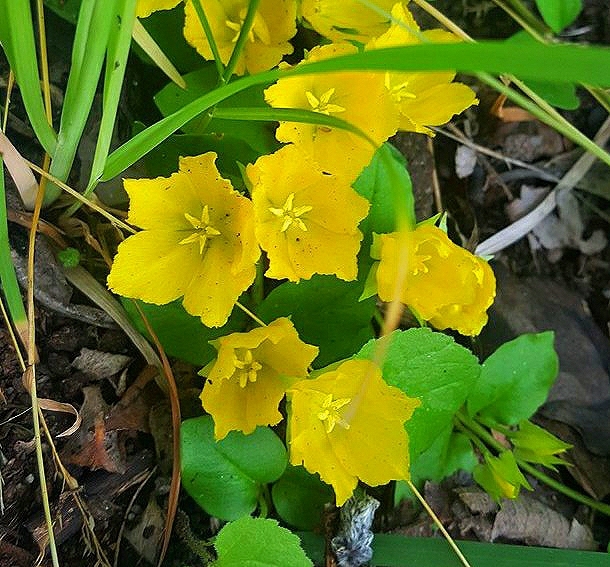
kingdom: Plantae
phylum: Tracheophyta
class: Magnoliopsida
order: Ericales
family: Primulaceae
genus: Lysimachia
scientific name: Lysimachia nummularia
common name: Moneywort
